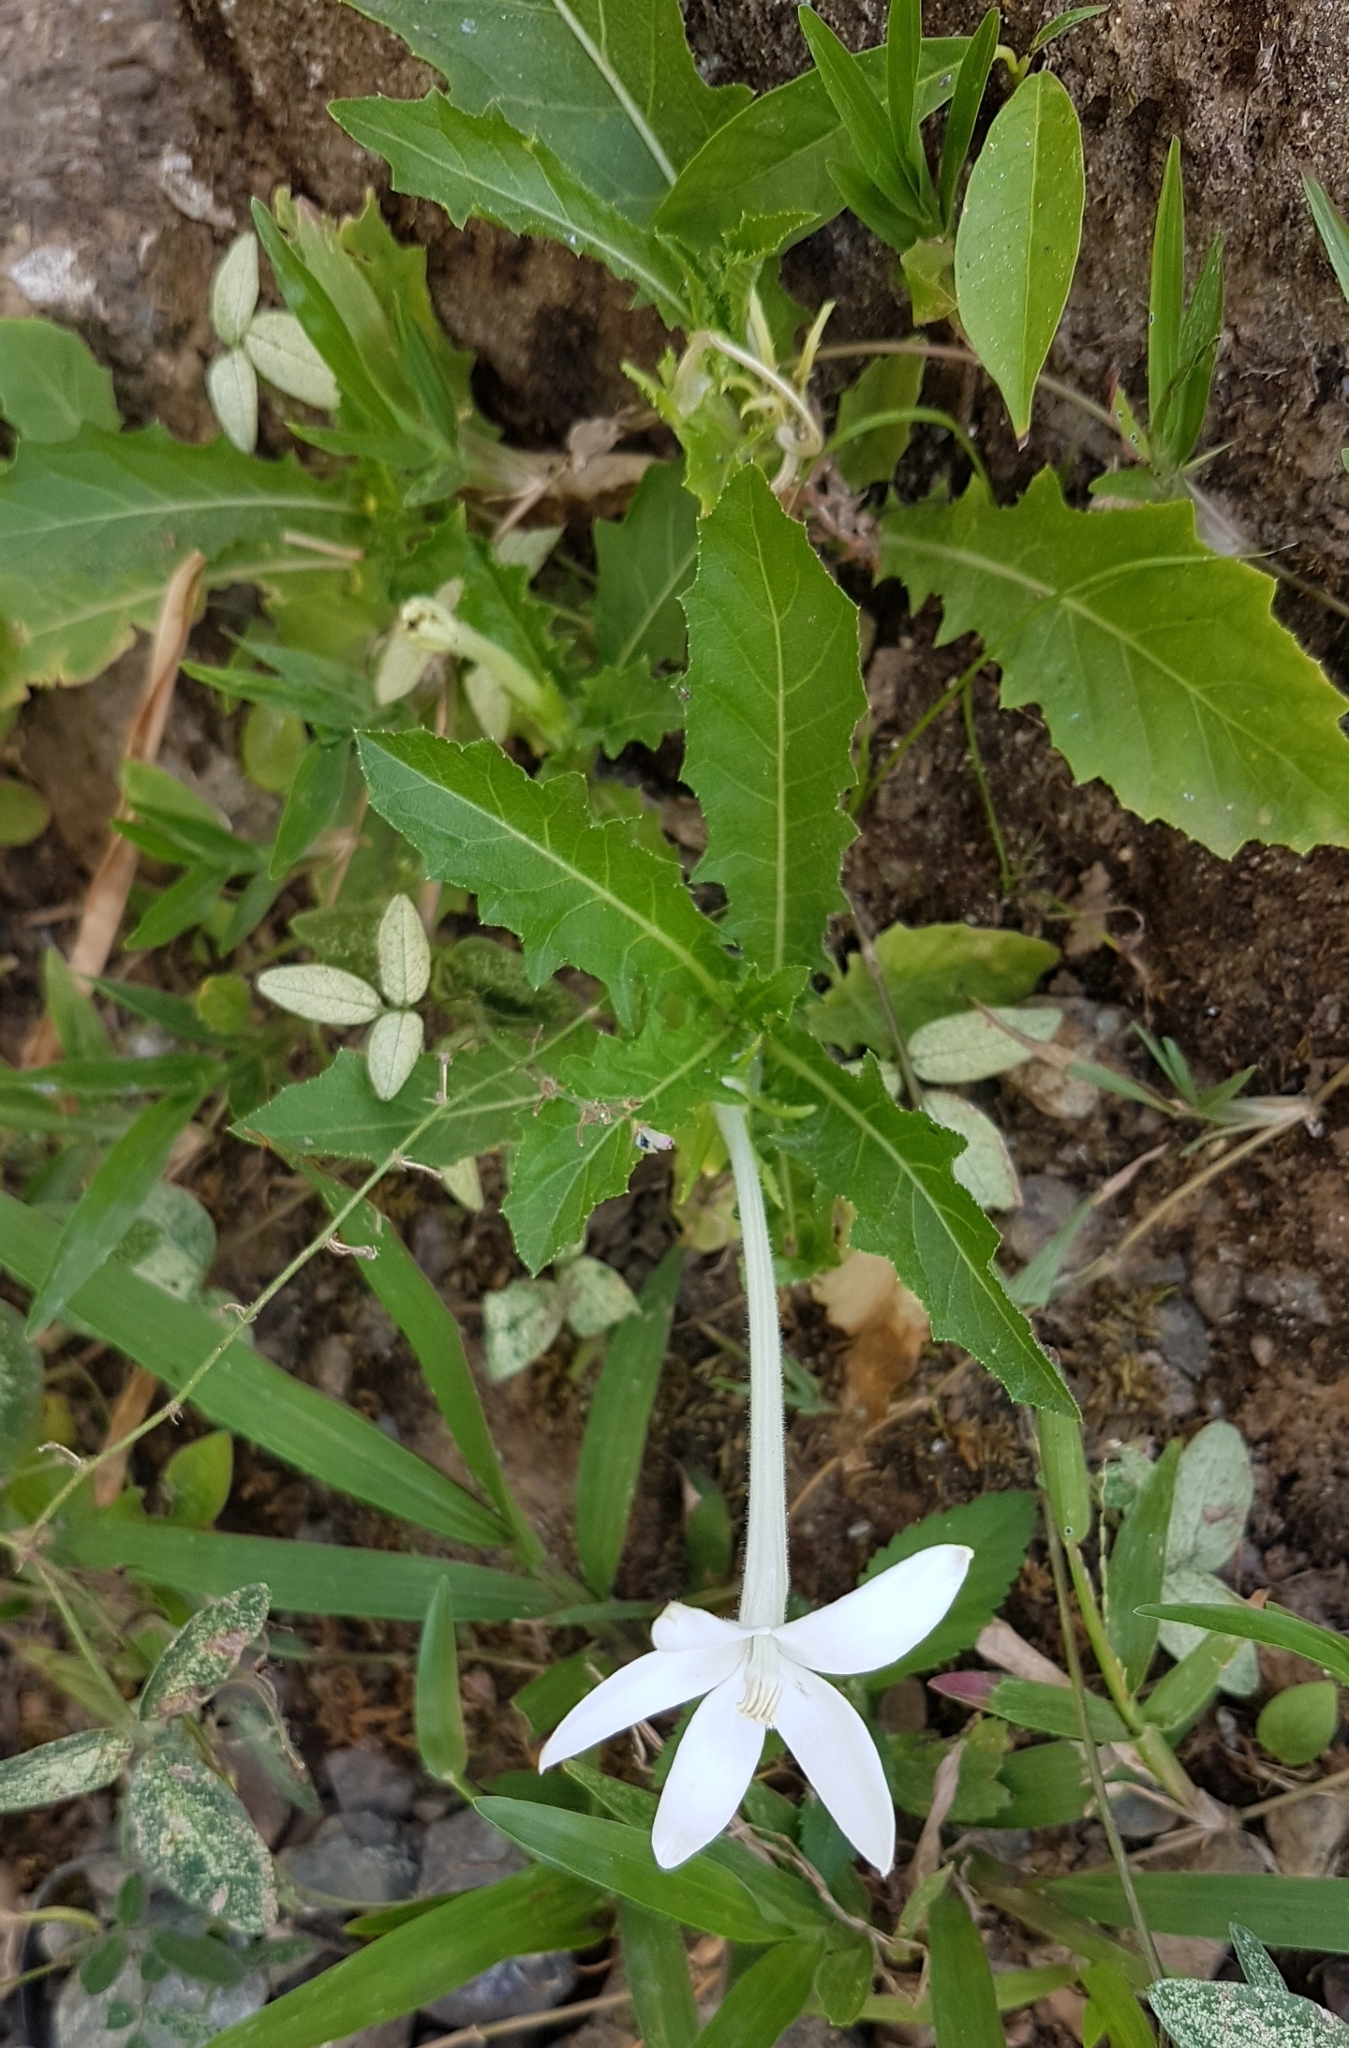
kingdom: Plantae
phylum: Tracheophyta
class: Magnoliopsida
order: Asterales
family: Campanulaceae
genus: Hippobroma
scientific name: Hippobroma longiflora
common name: Madamfate
